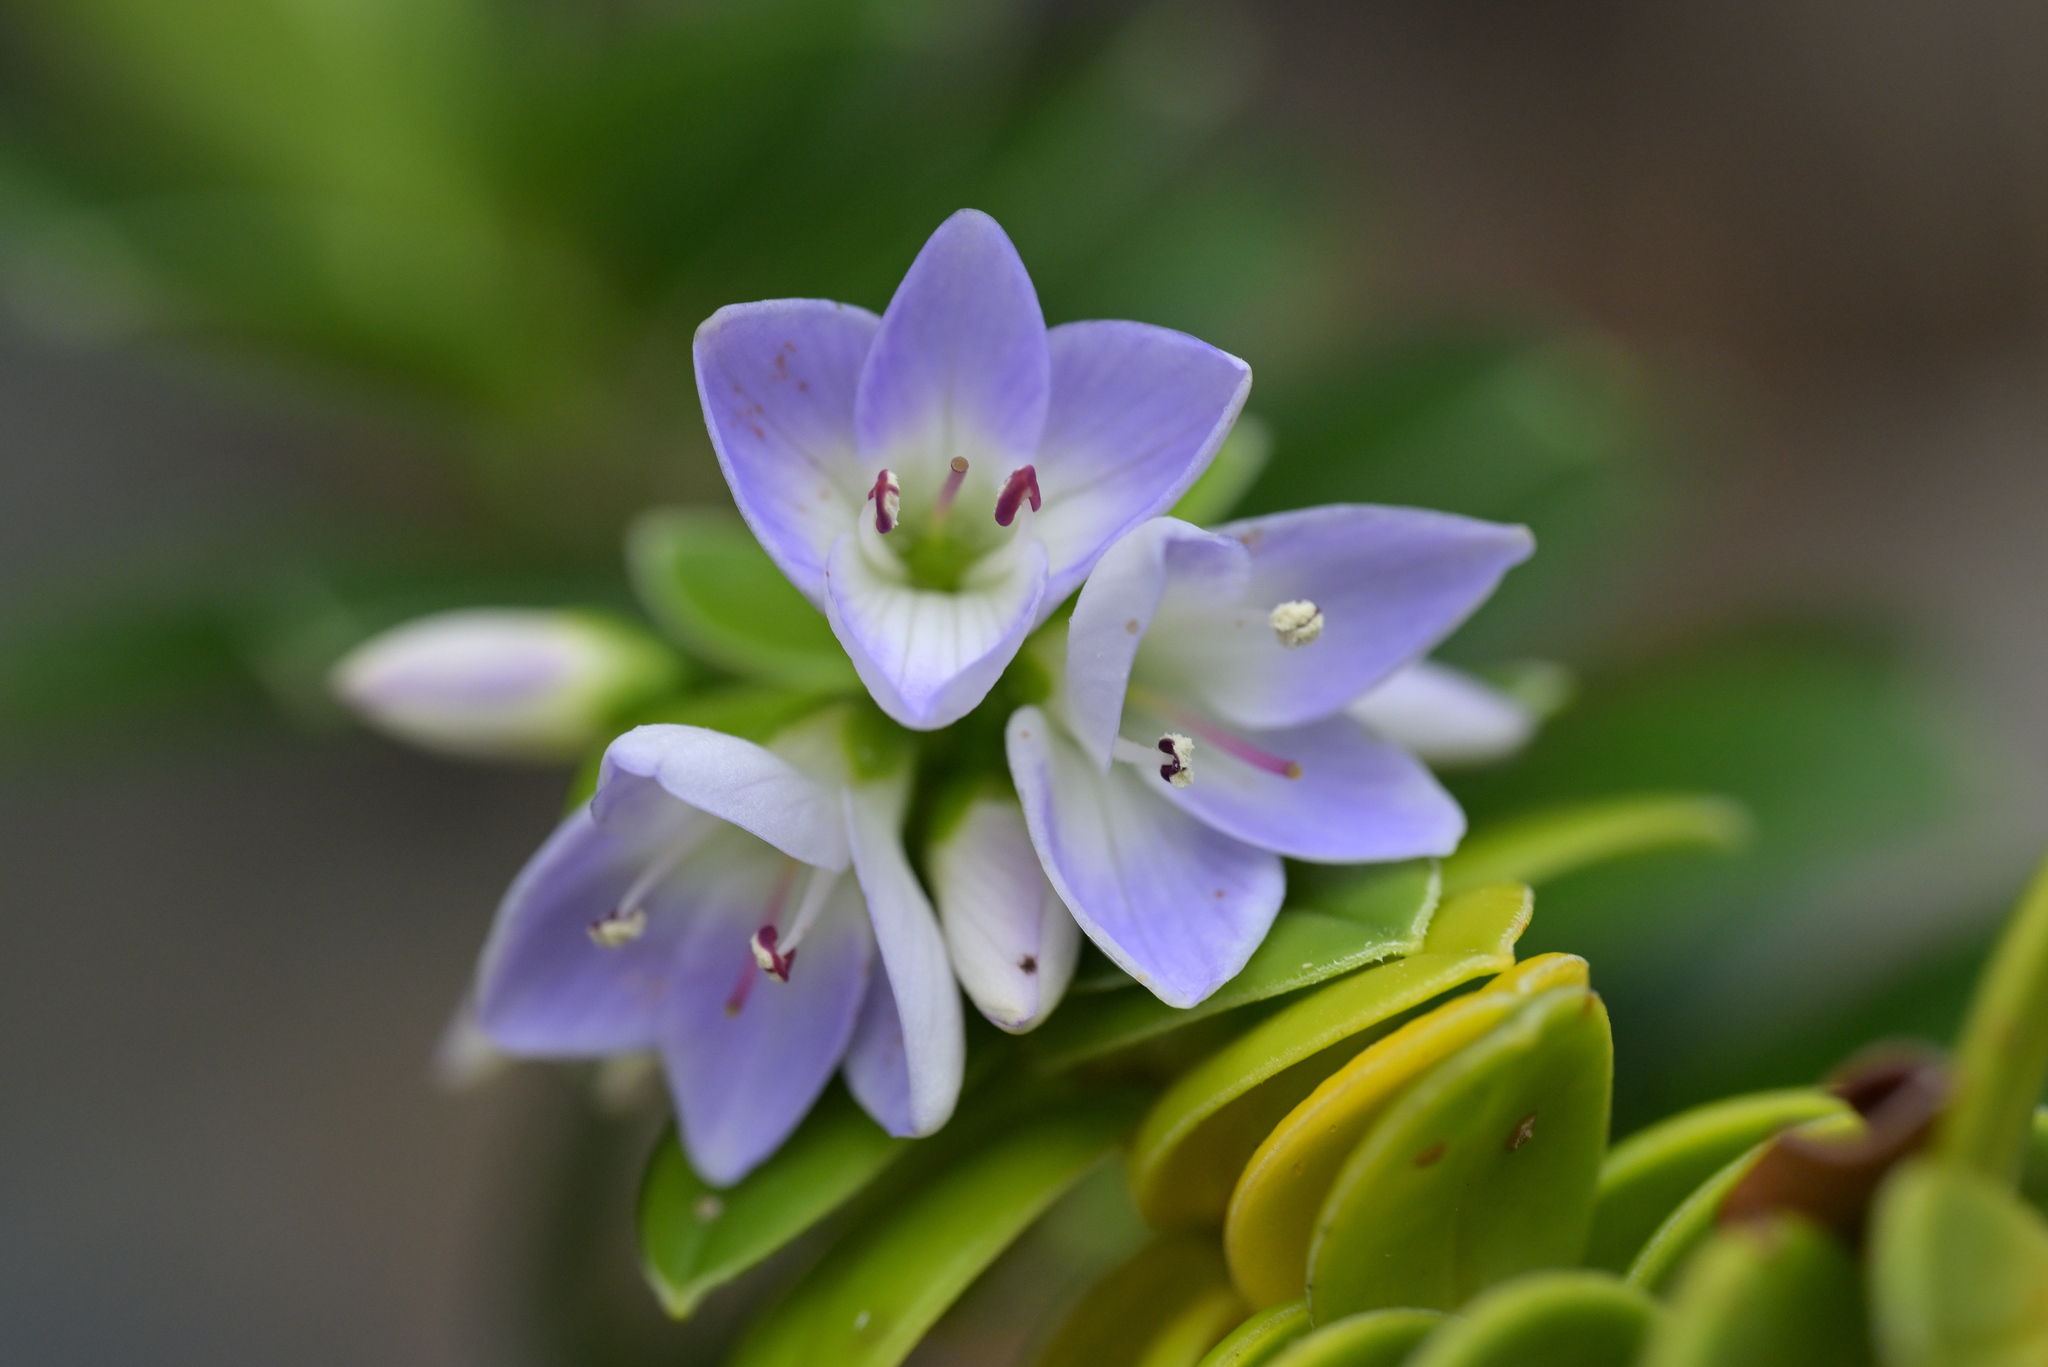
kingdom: Plantae
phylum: Tracheophyta
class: Magnoliopsida
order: Lamiales
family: Plantaginaceae
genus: Veronica
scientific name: Veronica elliptica
